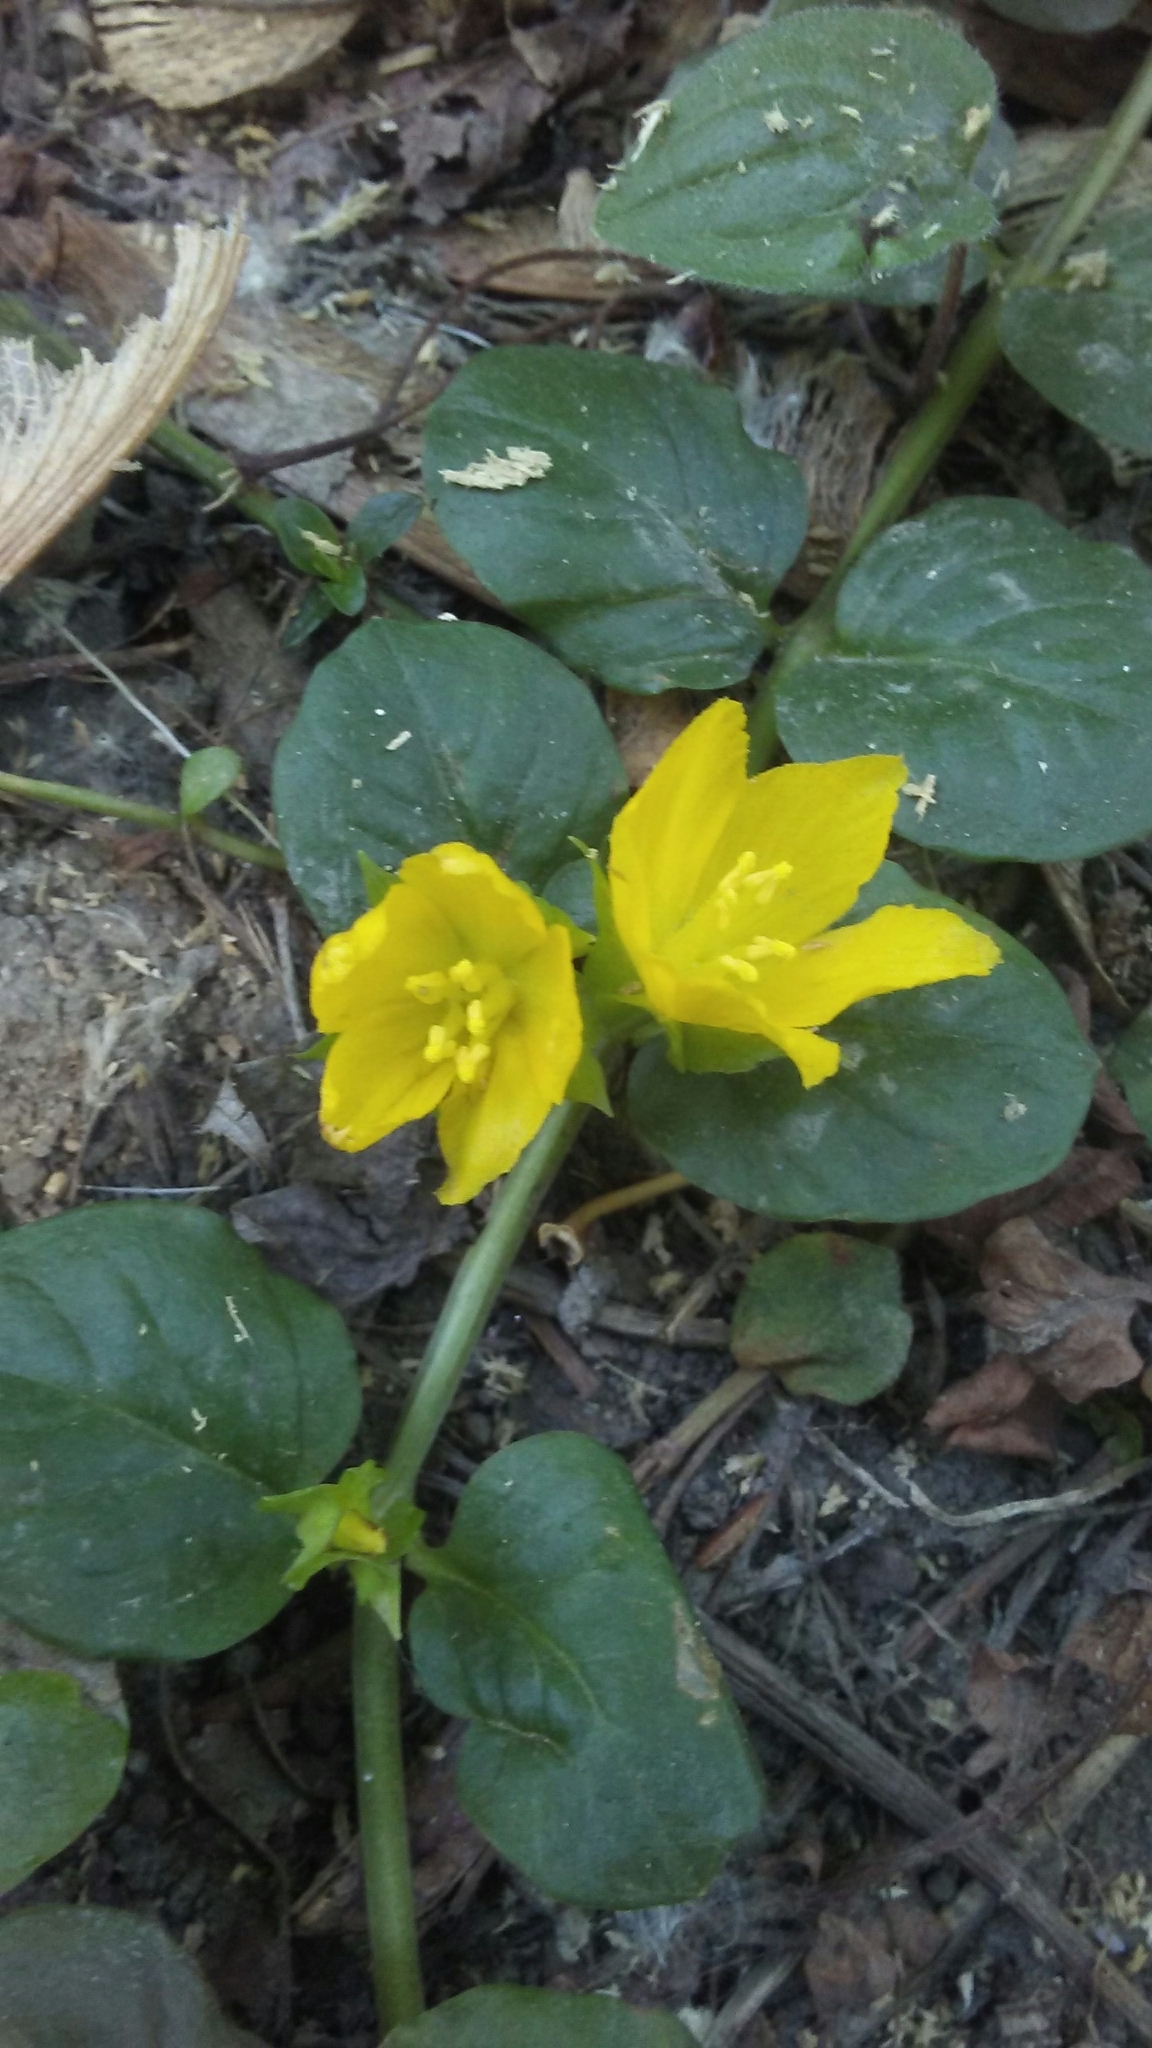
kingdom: Plantae
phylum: Tracheophyta
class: Magnoliopsida
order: Ericales
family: Primulaceae
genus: Lysimachia
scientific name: Lysimachia nummularia
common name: Moneywort
